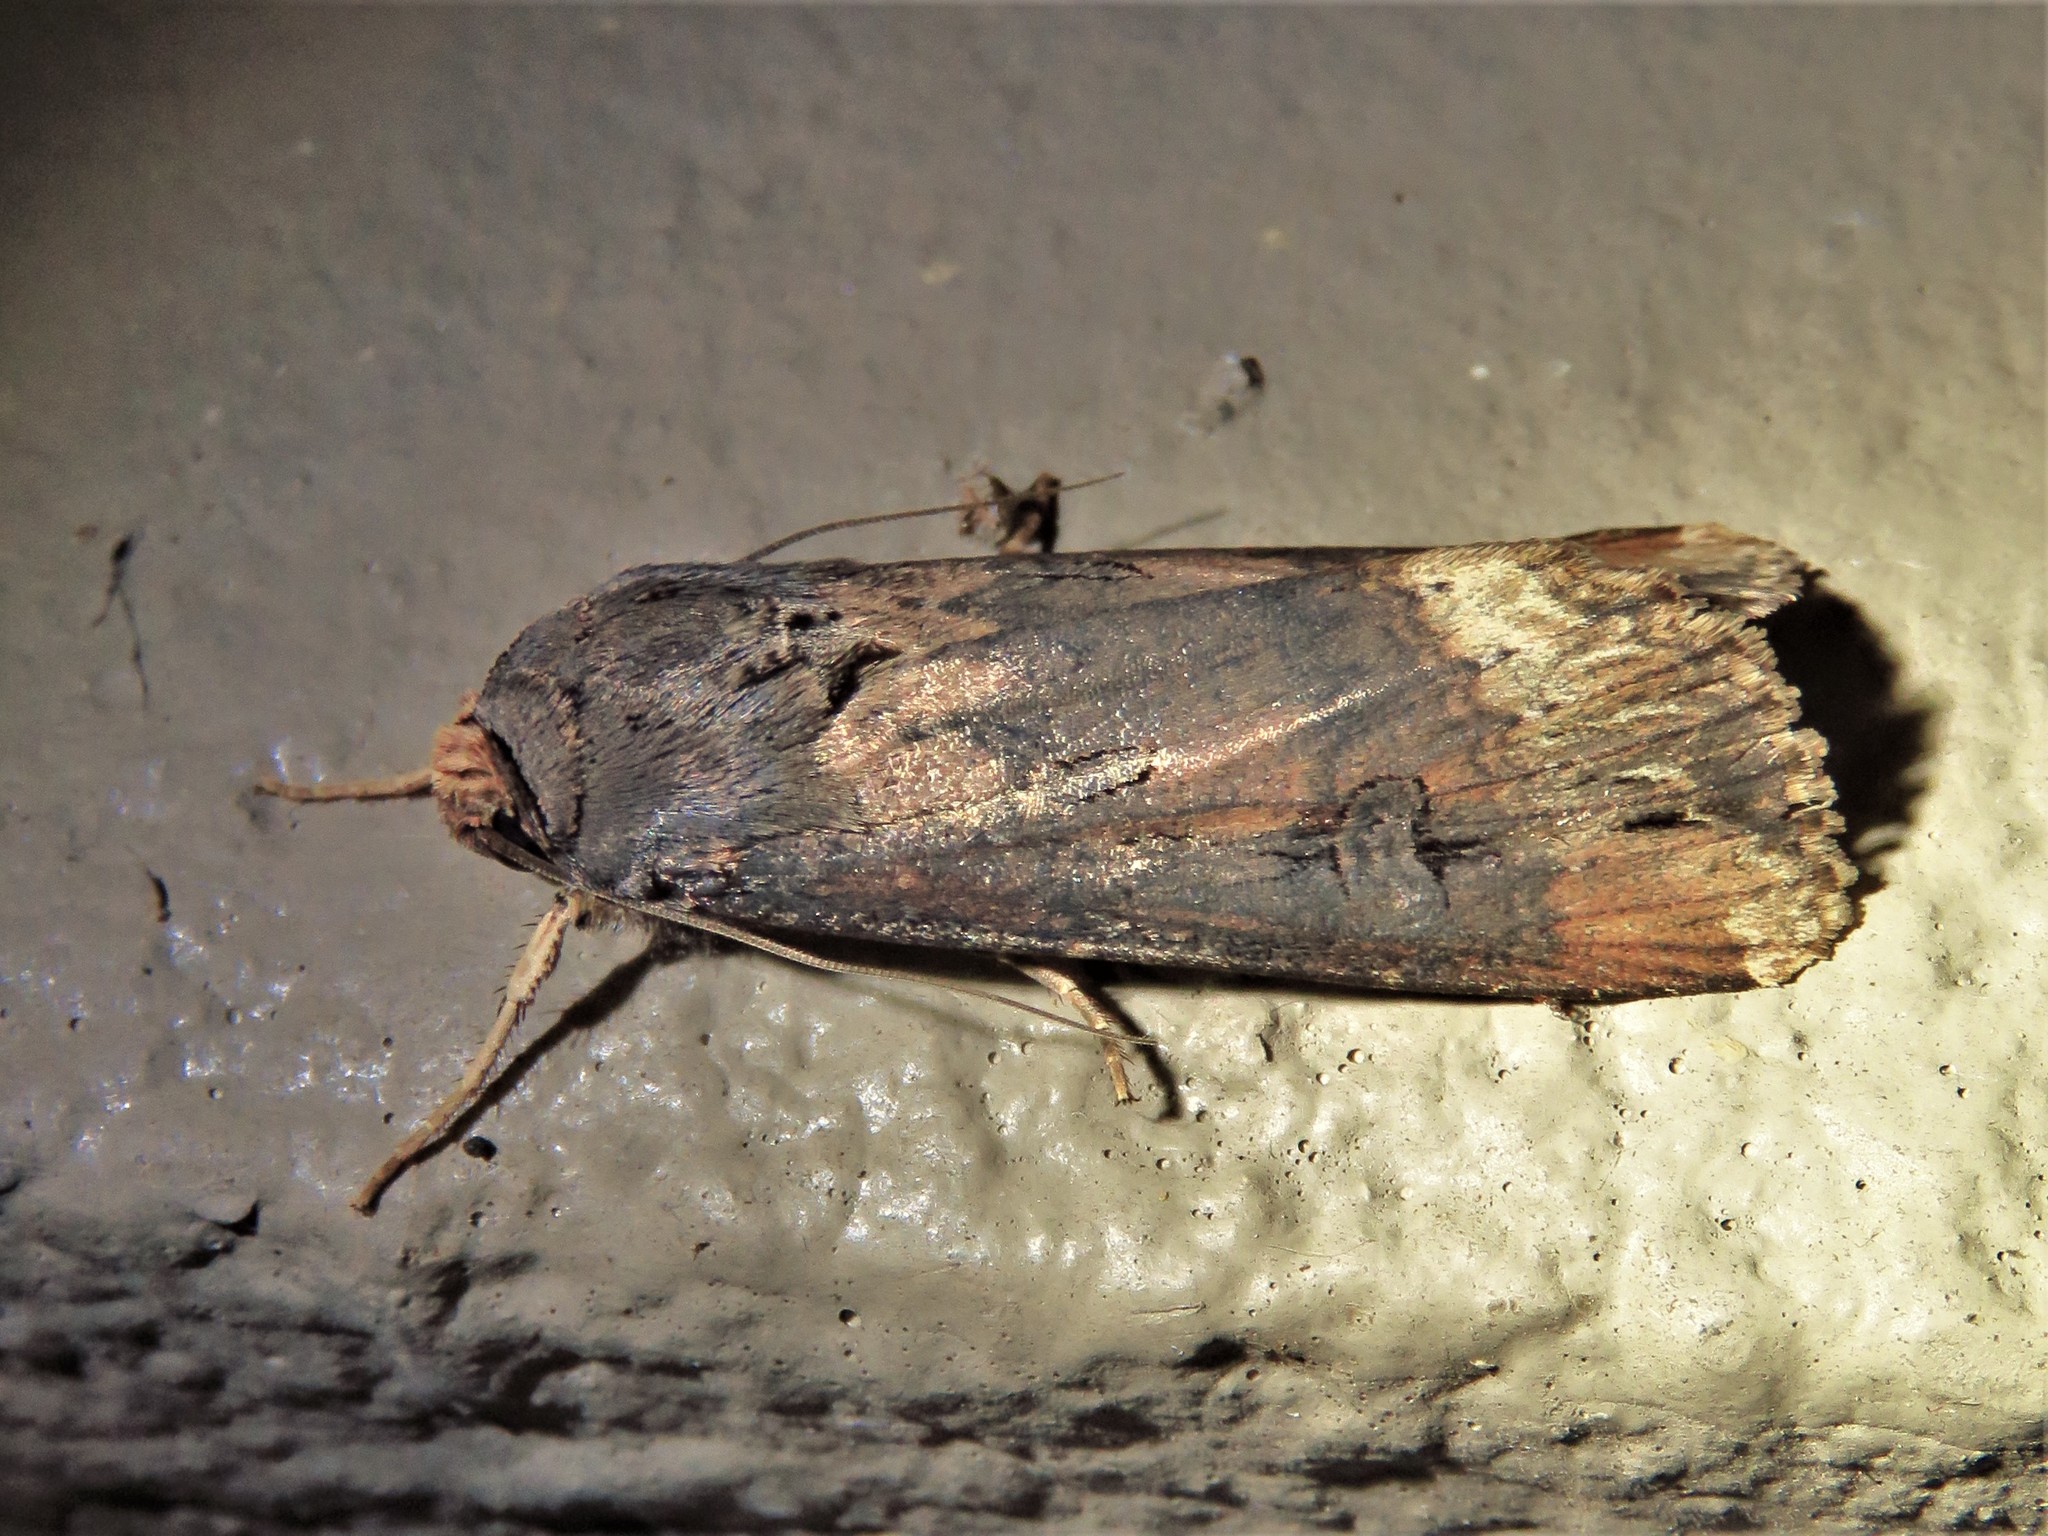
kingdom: Animalia
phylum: Arthropoda
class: Insecta
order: Lepidoptera
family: Noctuidae
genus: Agrotis
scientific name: Agrotis ipsilon
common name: Dark sword-grass
